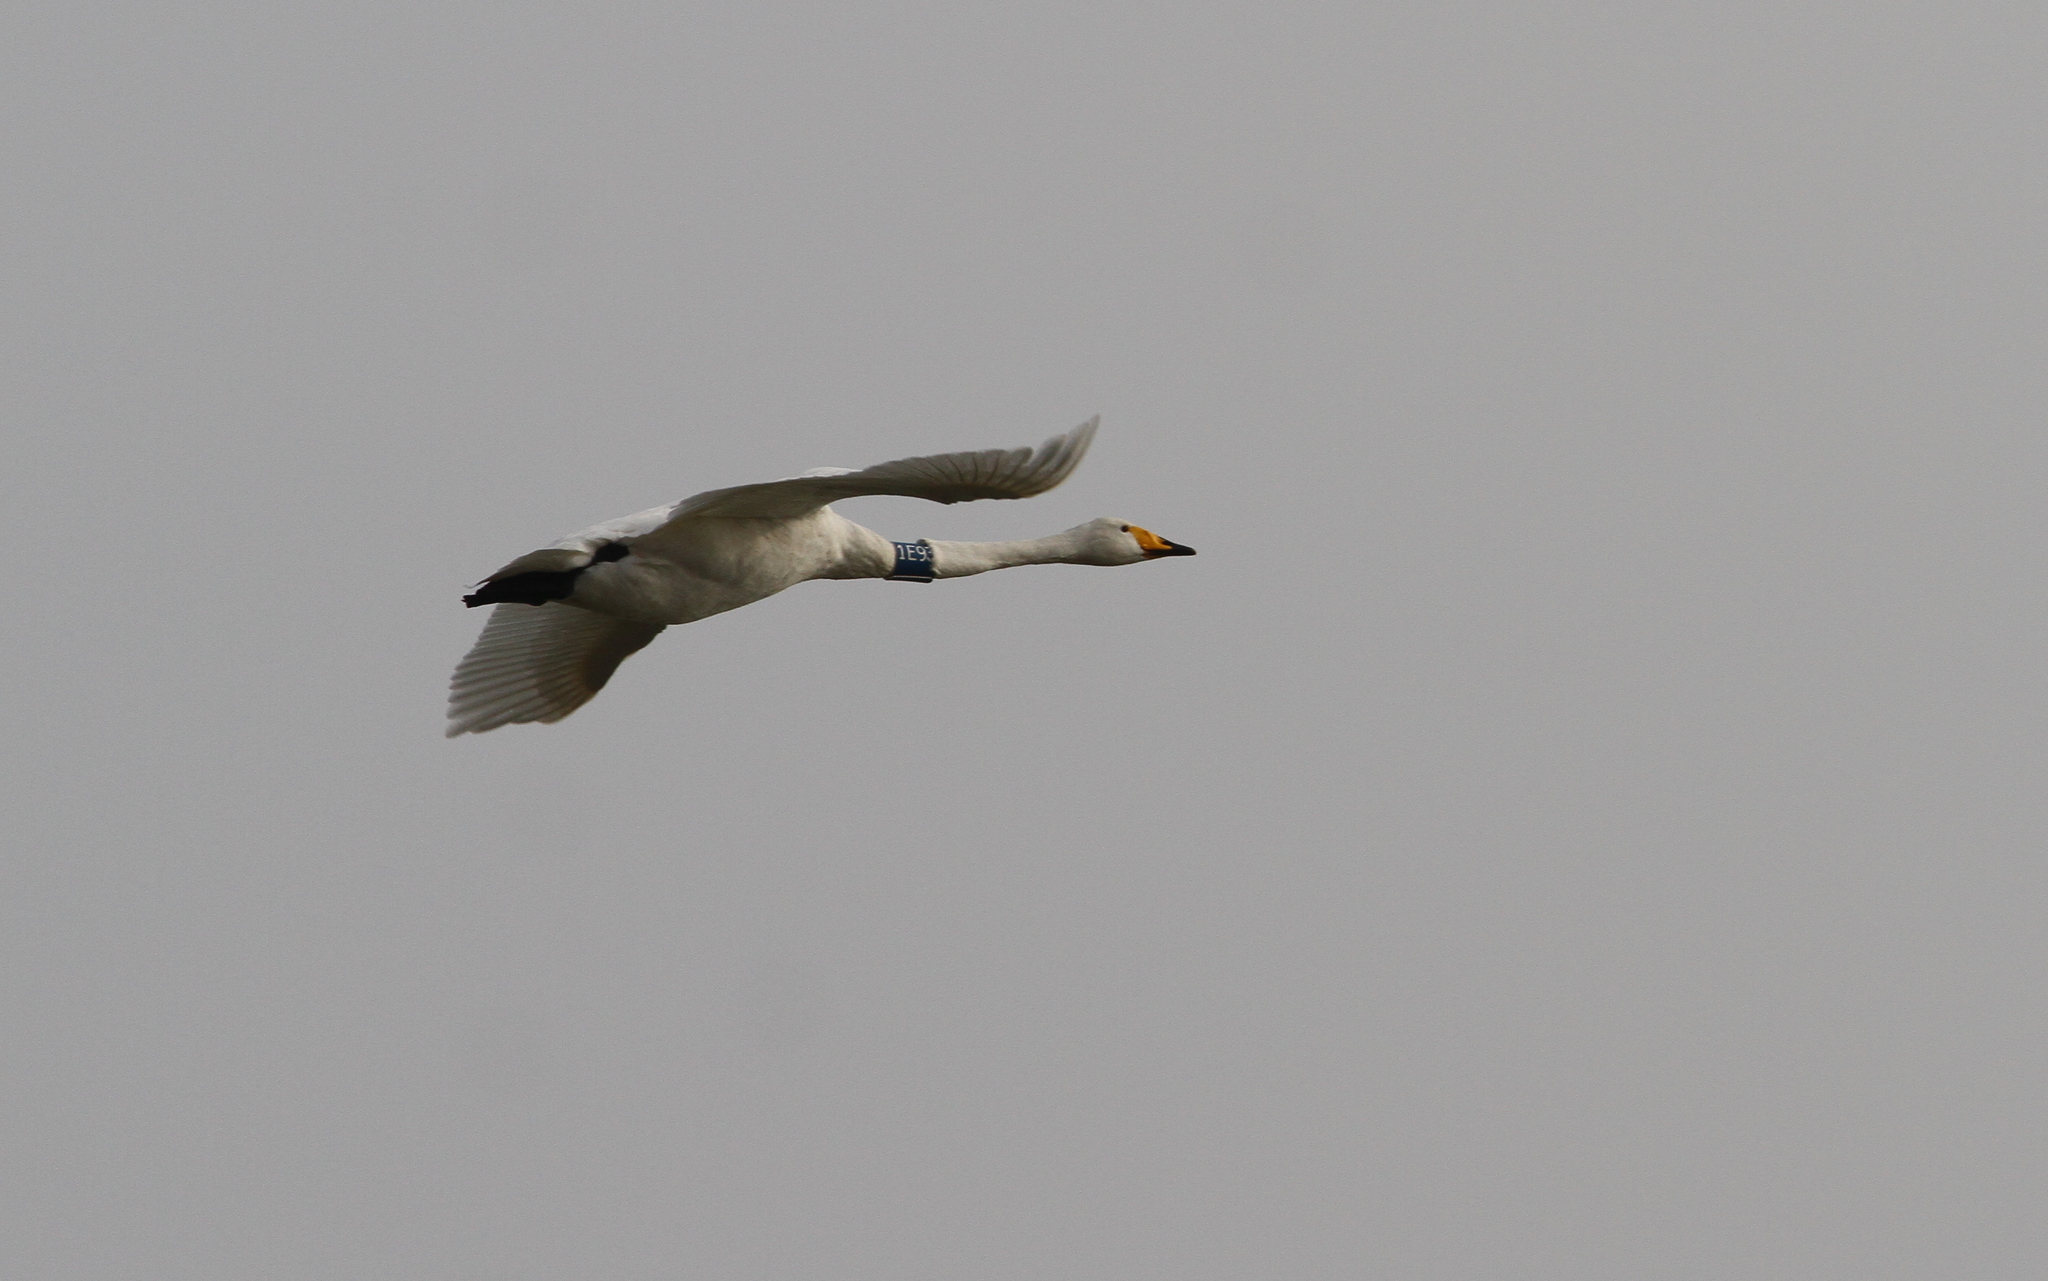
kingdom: Animalia
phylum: Chordata
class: Aves
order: Anseriformes
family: Anatidae
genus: Cygnus
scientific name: Cygnus cygnus
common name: Whooper swan
